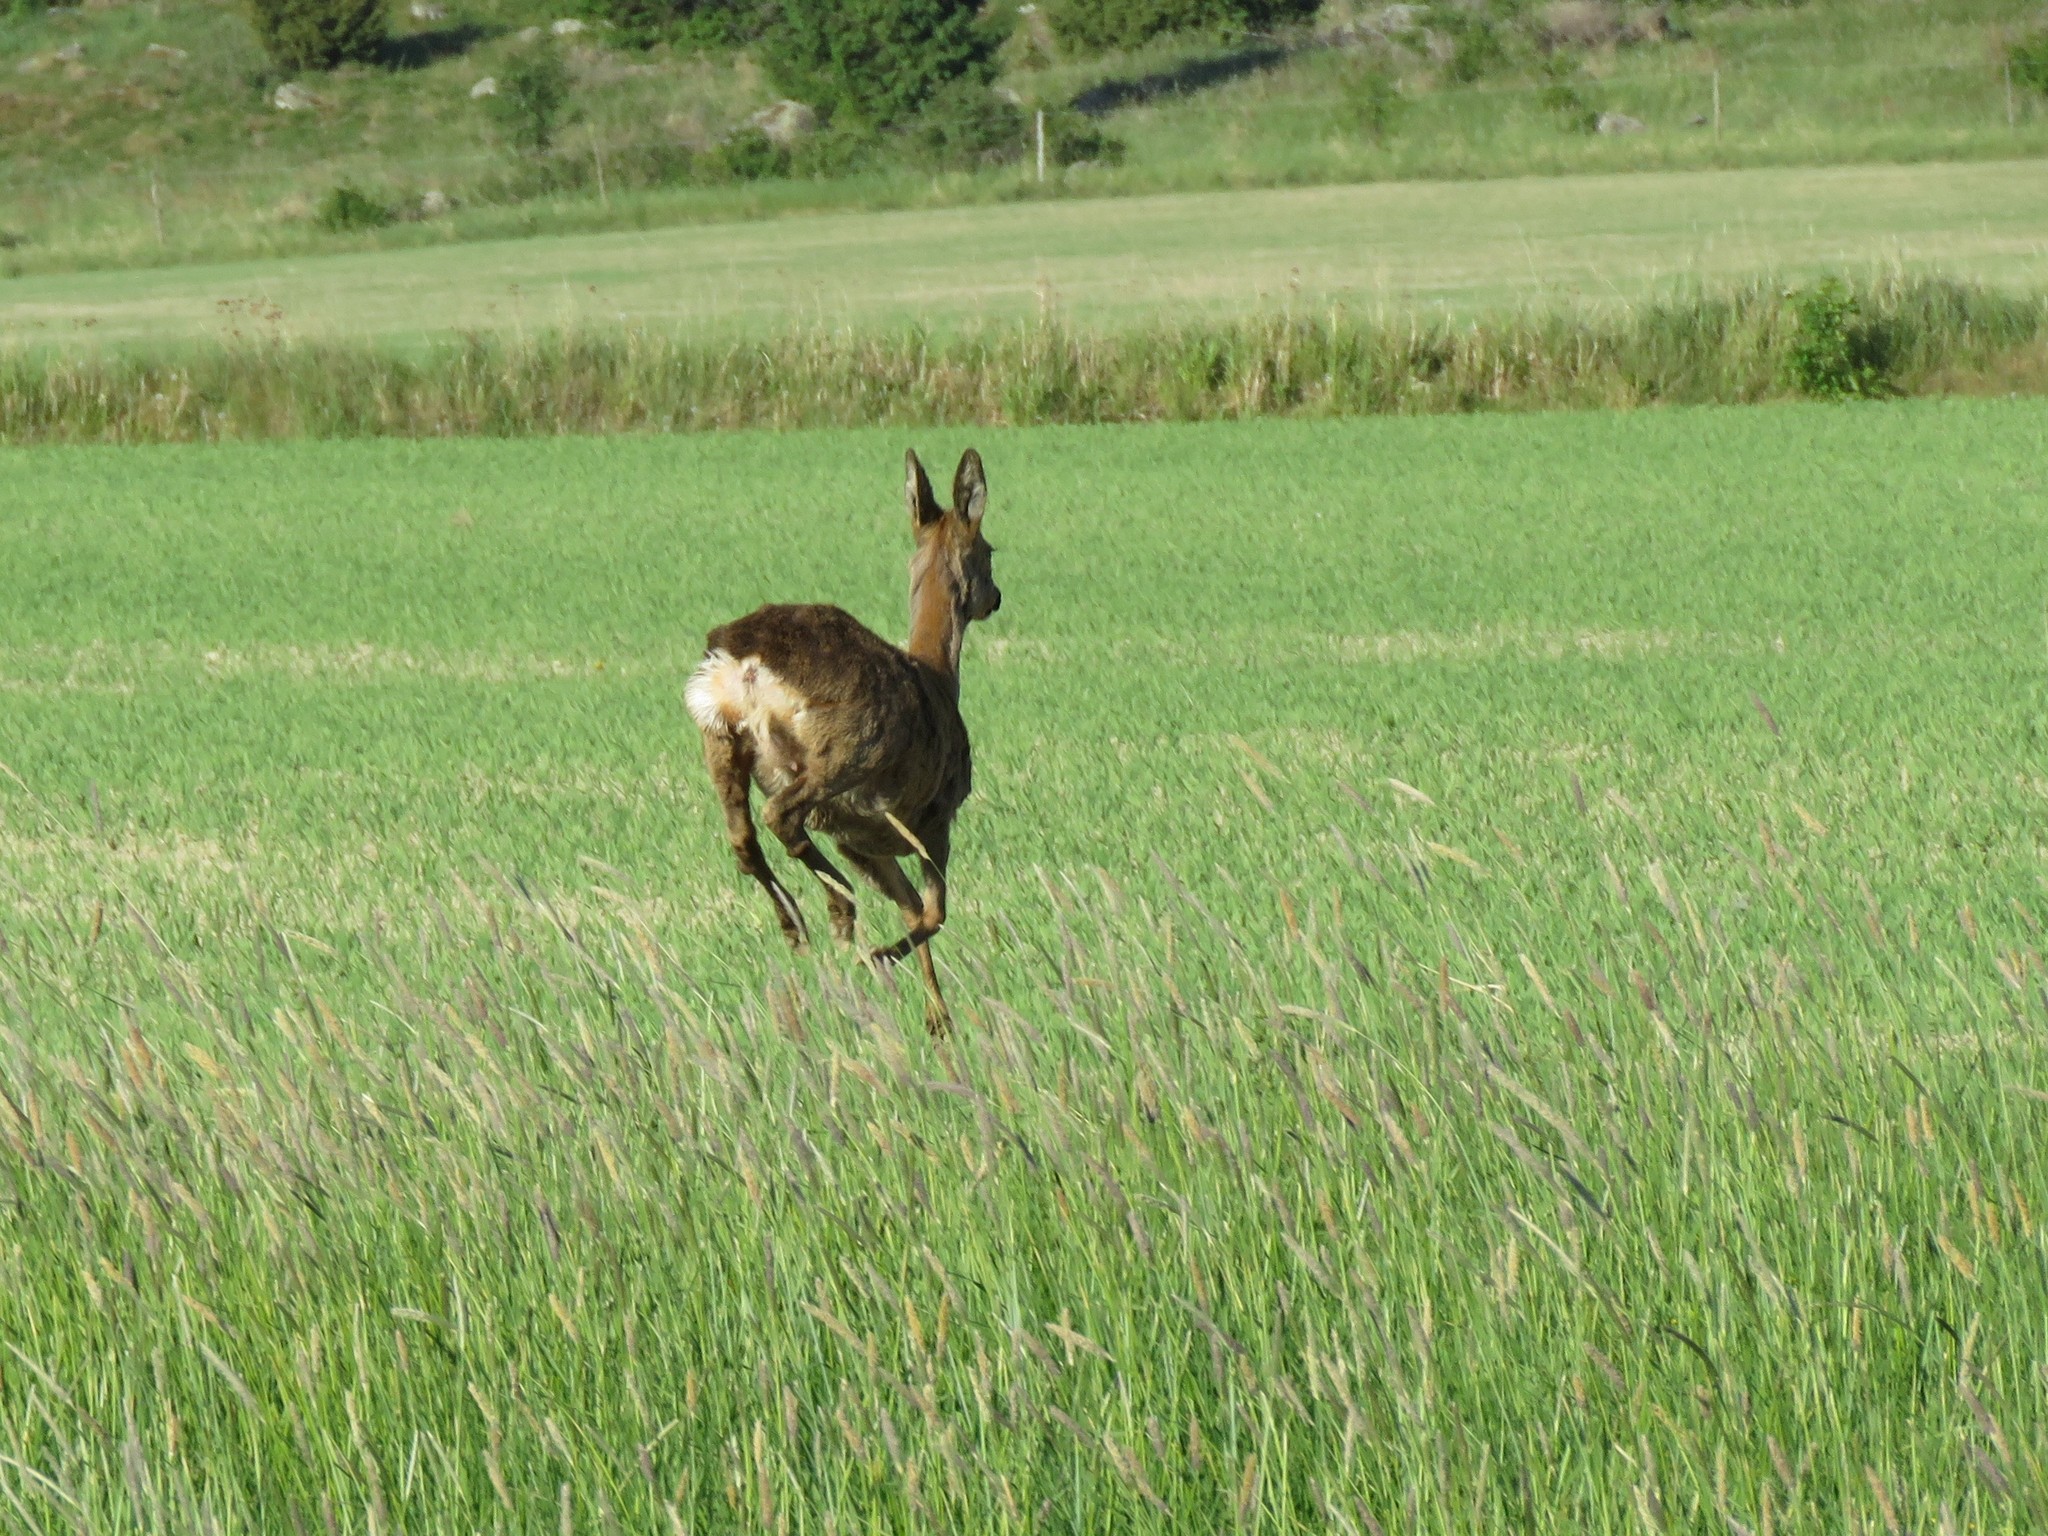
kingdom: Animalia
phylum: Chordata
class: Mammalia
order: Artiodactyla
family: Cervidae
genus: Capreolus
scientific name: Capreolus capreolus
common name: Western roe deer
